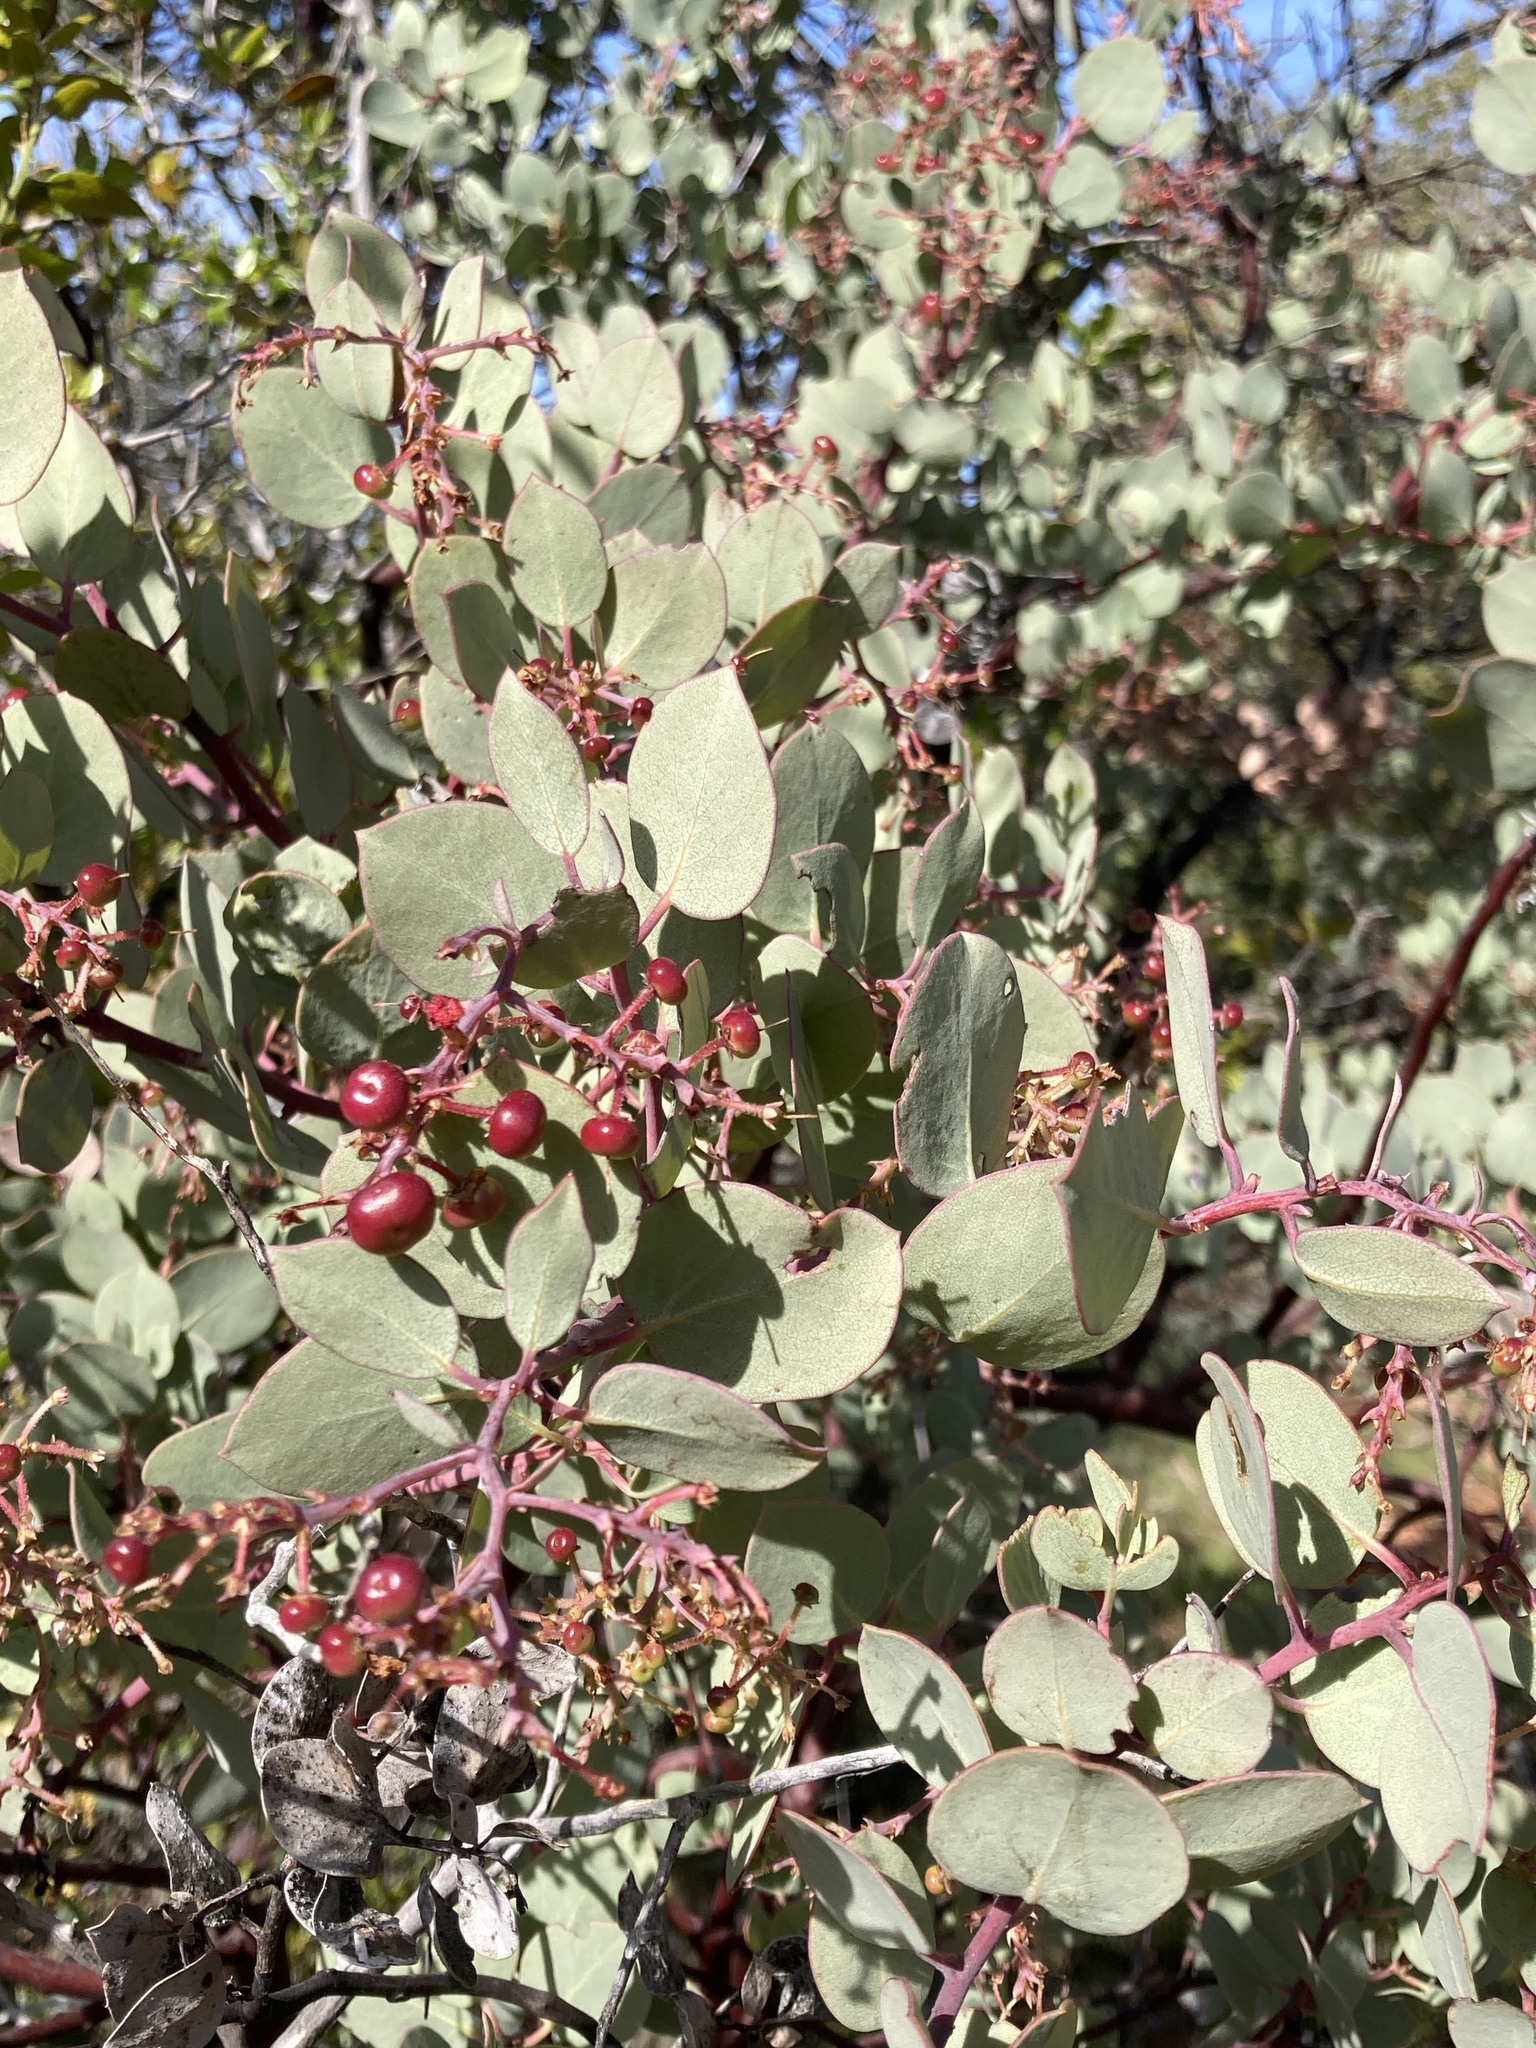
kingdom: Plantae
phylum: Tracheophyta
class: Magnoliopsida
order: Ericales
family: Ericaceae
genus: Arctostaphylos
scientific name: Arctostaphylos viscida
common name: White-leaf manzanita
